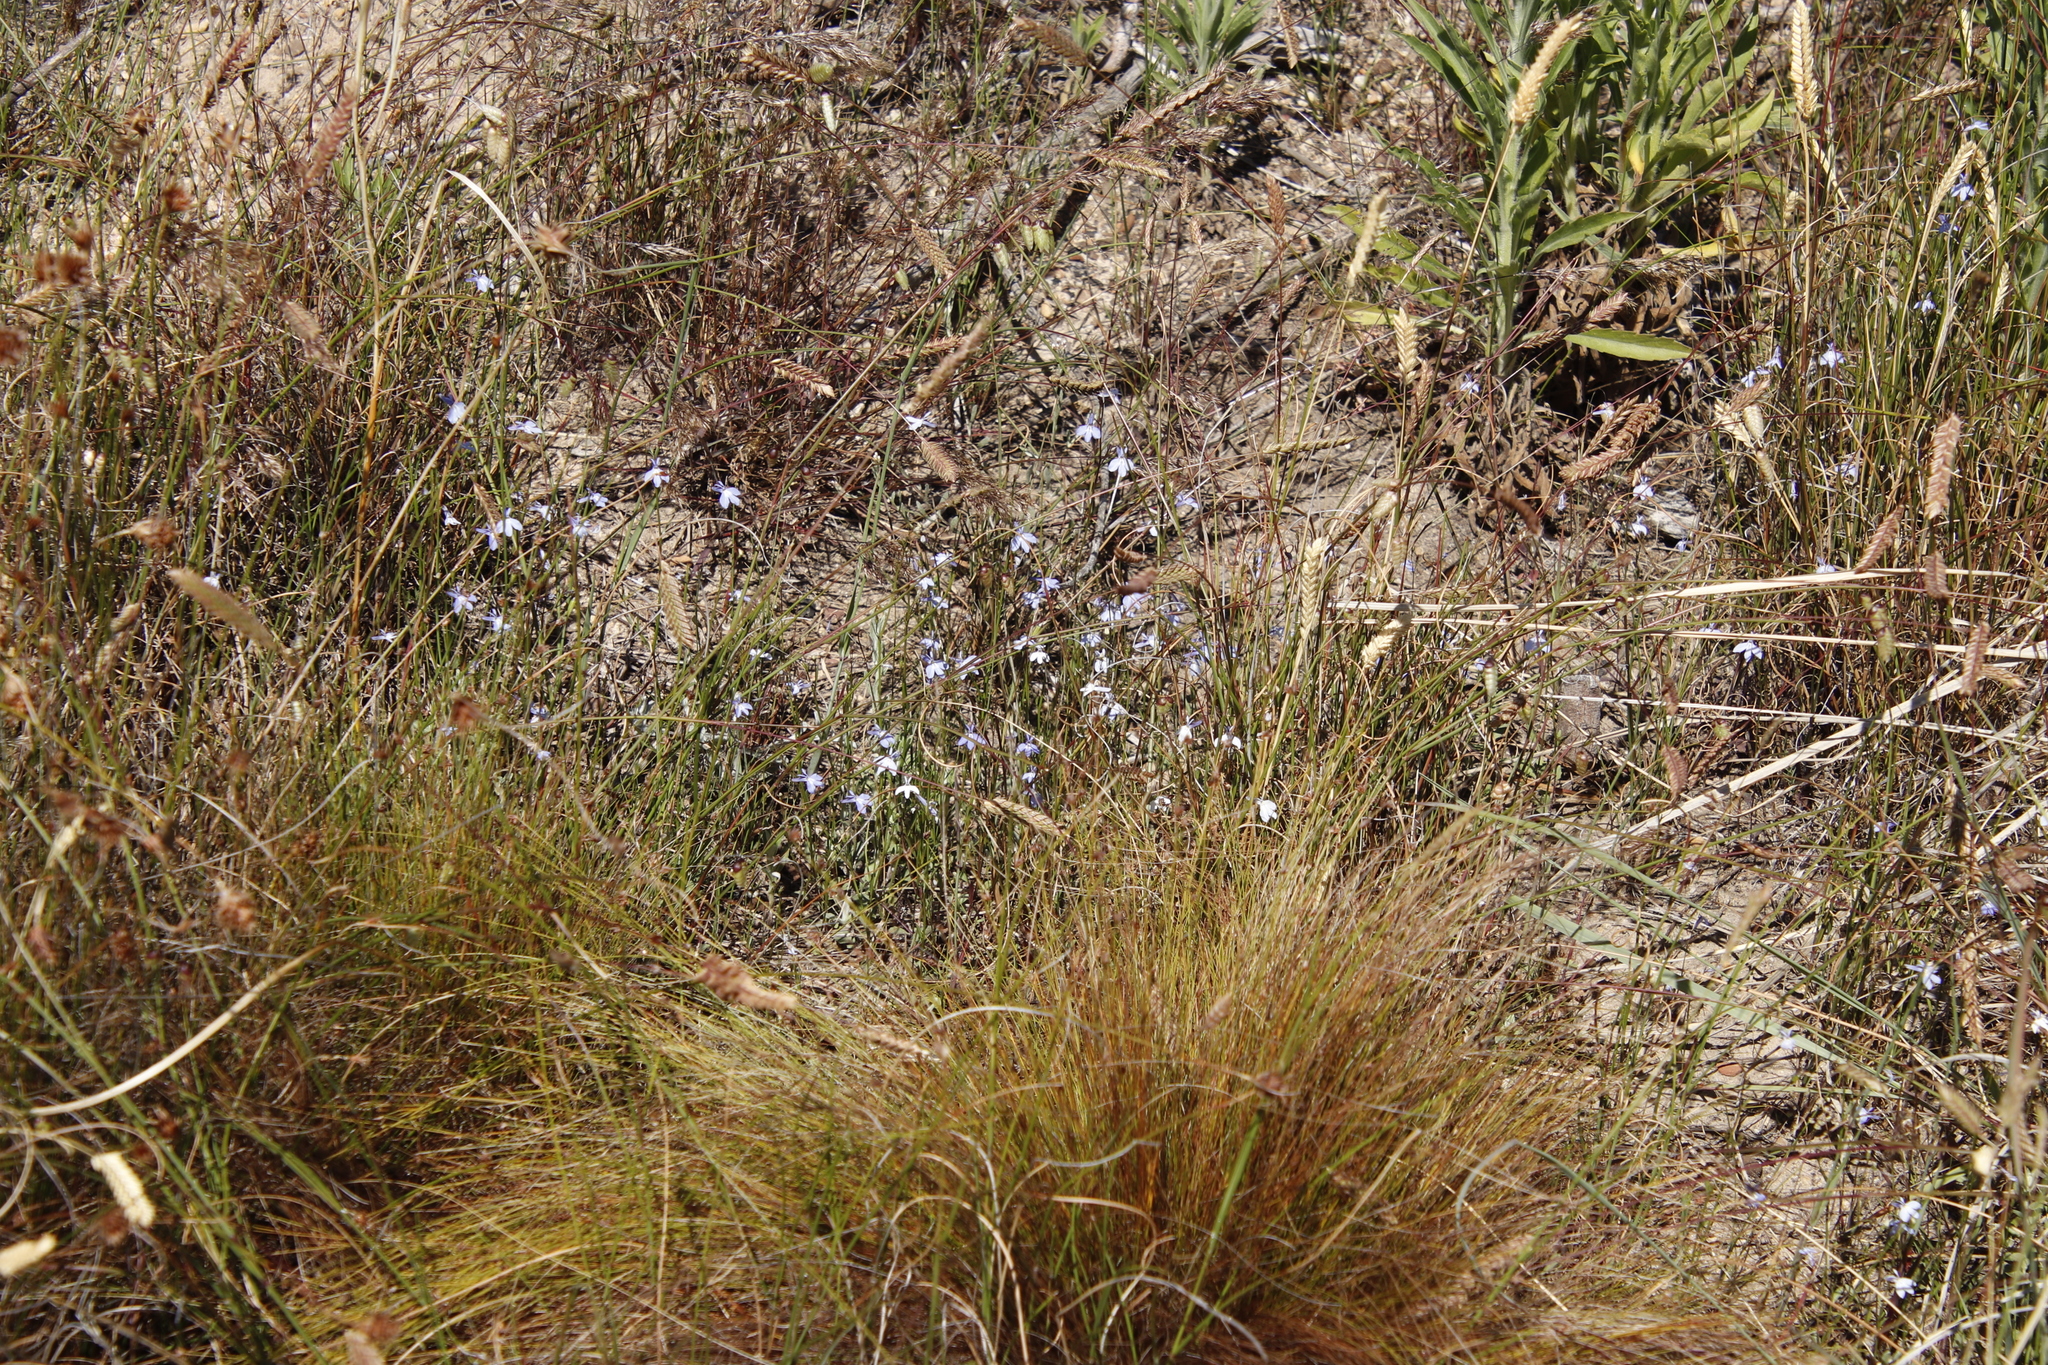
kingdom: Plantae
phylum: Tracheophyta
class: Magnoliopsida
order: Asterales
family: Campanulaceae
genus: Lobelia
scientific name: Lobelia erinus
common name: Edging lobelia
